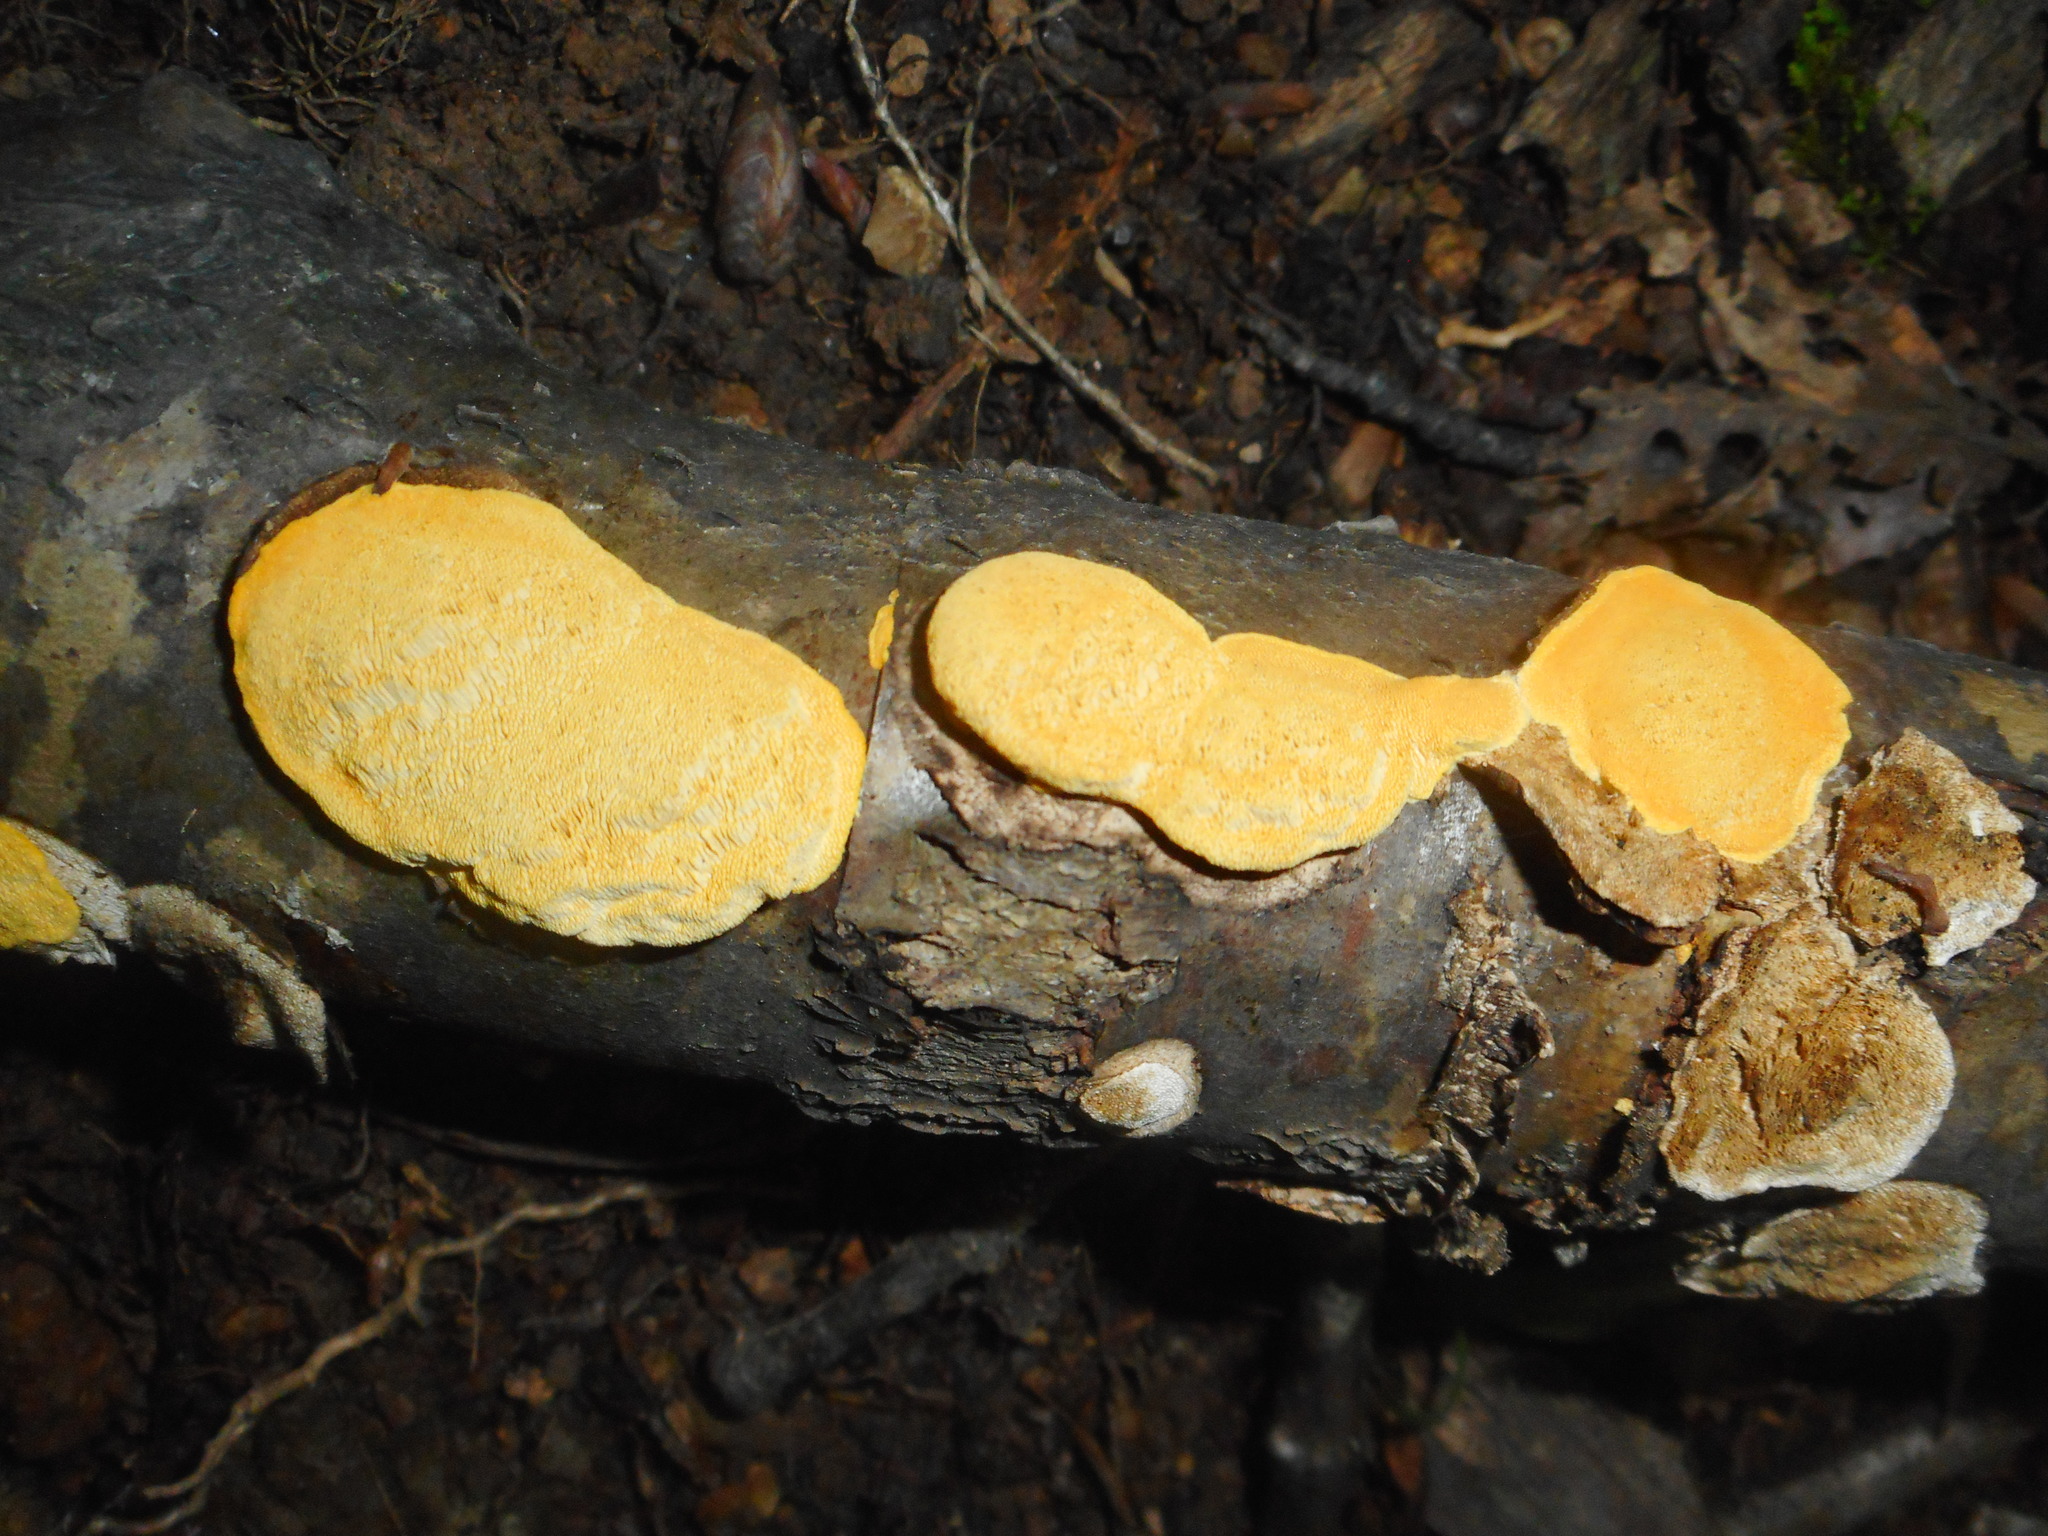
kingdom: Fungi
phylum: Basidiomycota
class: Agaricomycetes
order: Polyporales
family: Polyporaceae
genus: Perenniporia
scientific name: Perenniporia tenuis
